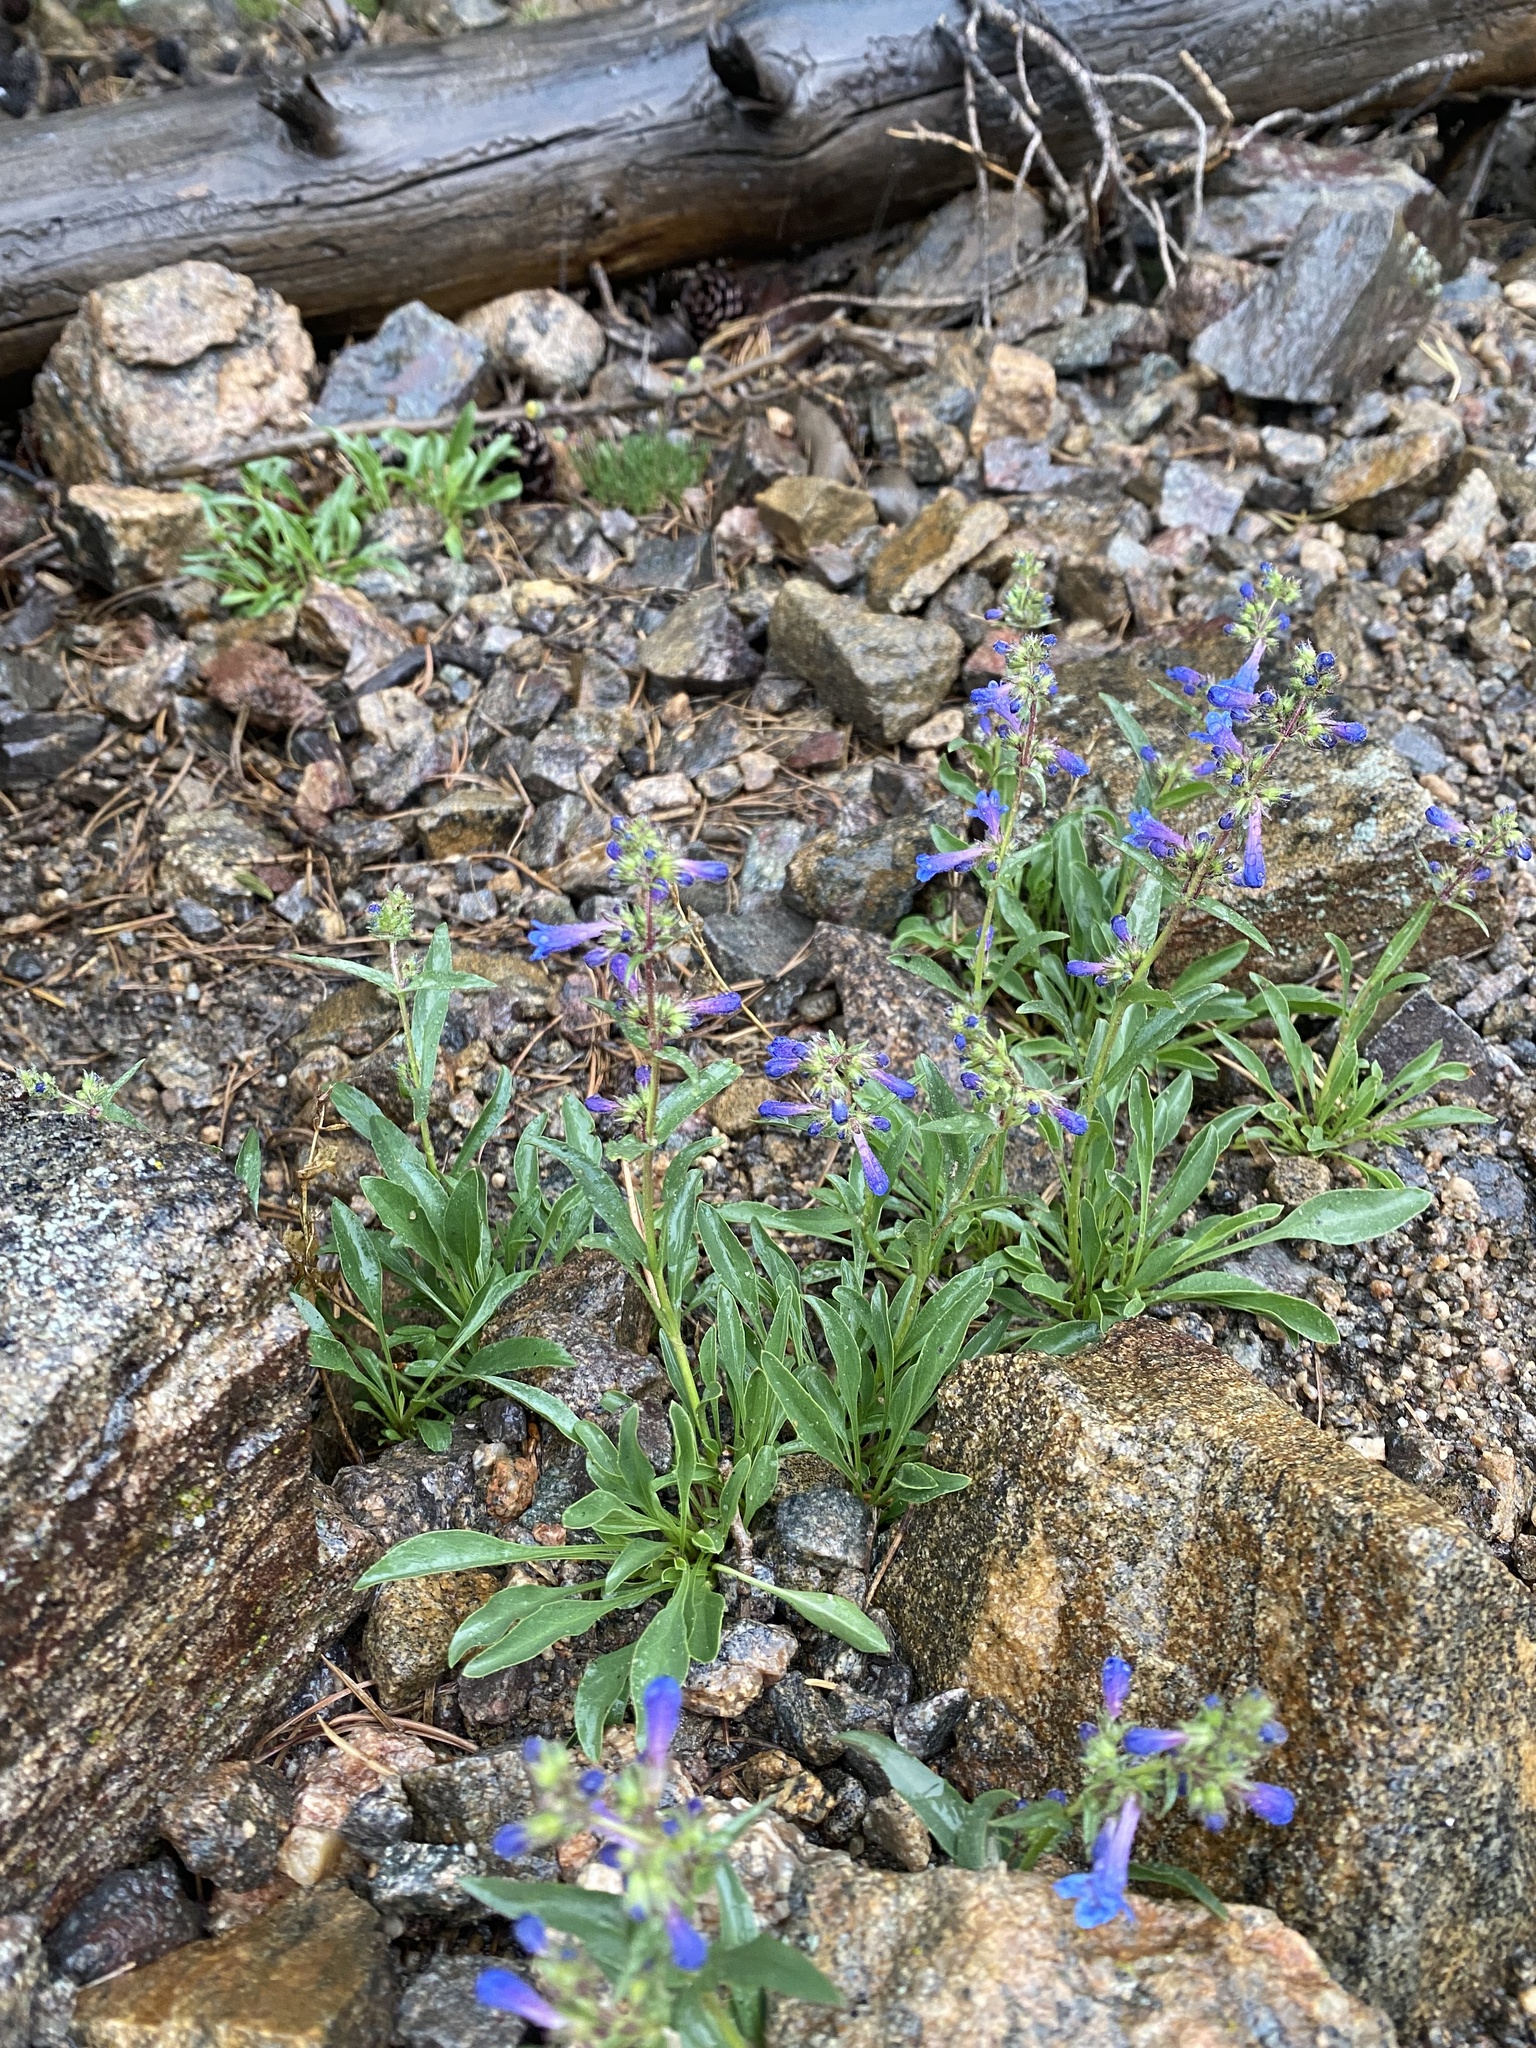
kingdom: Plantae
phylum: Tracheophyta
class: Magnoliopsida
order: Lamiales
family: Plantaginaceae
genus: Penstemon
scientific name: Penstemon virens
